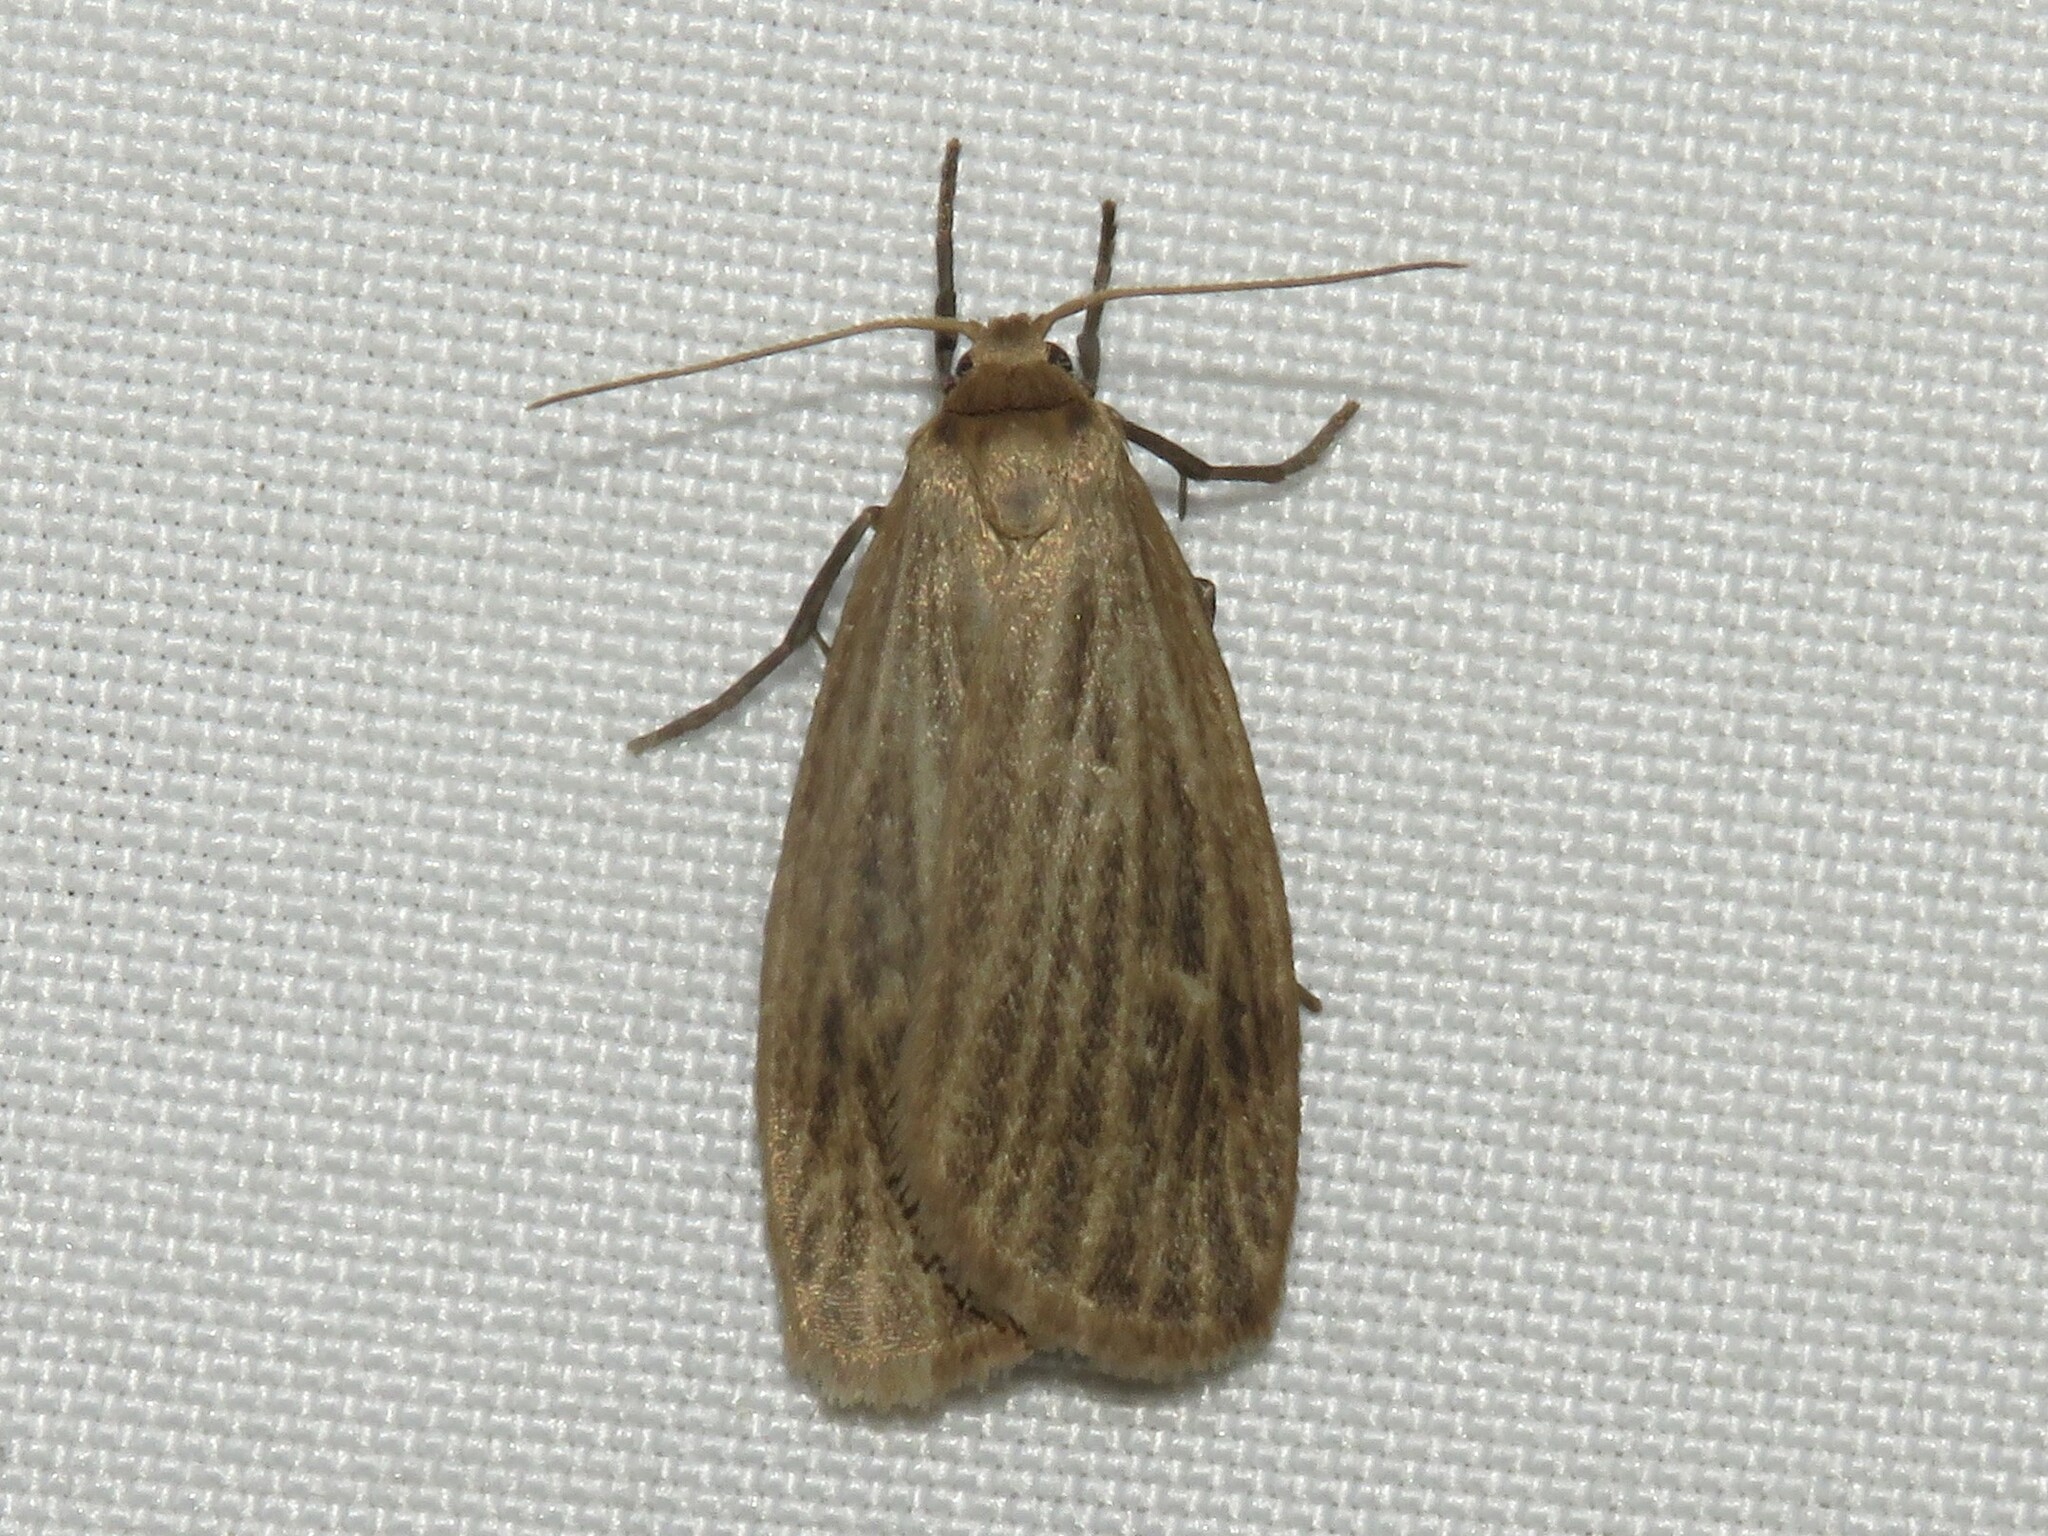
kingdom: Animalia
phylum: Arthropoda
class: Insecta
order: Lepidoptera
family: Erebidae
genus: Crambidia
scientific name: Crambidia pallida
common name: Pale lichen moth
